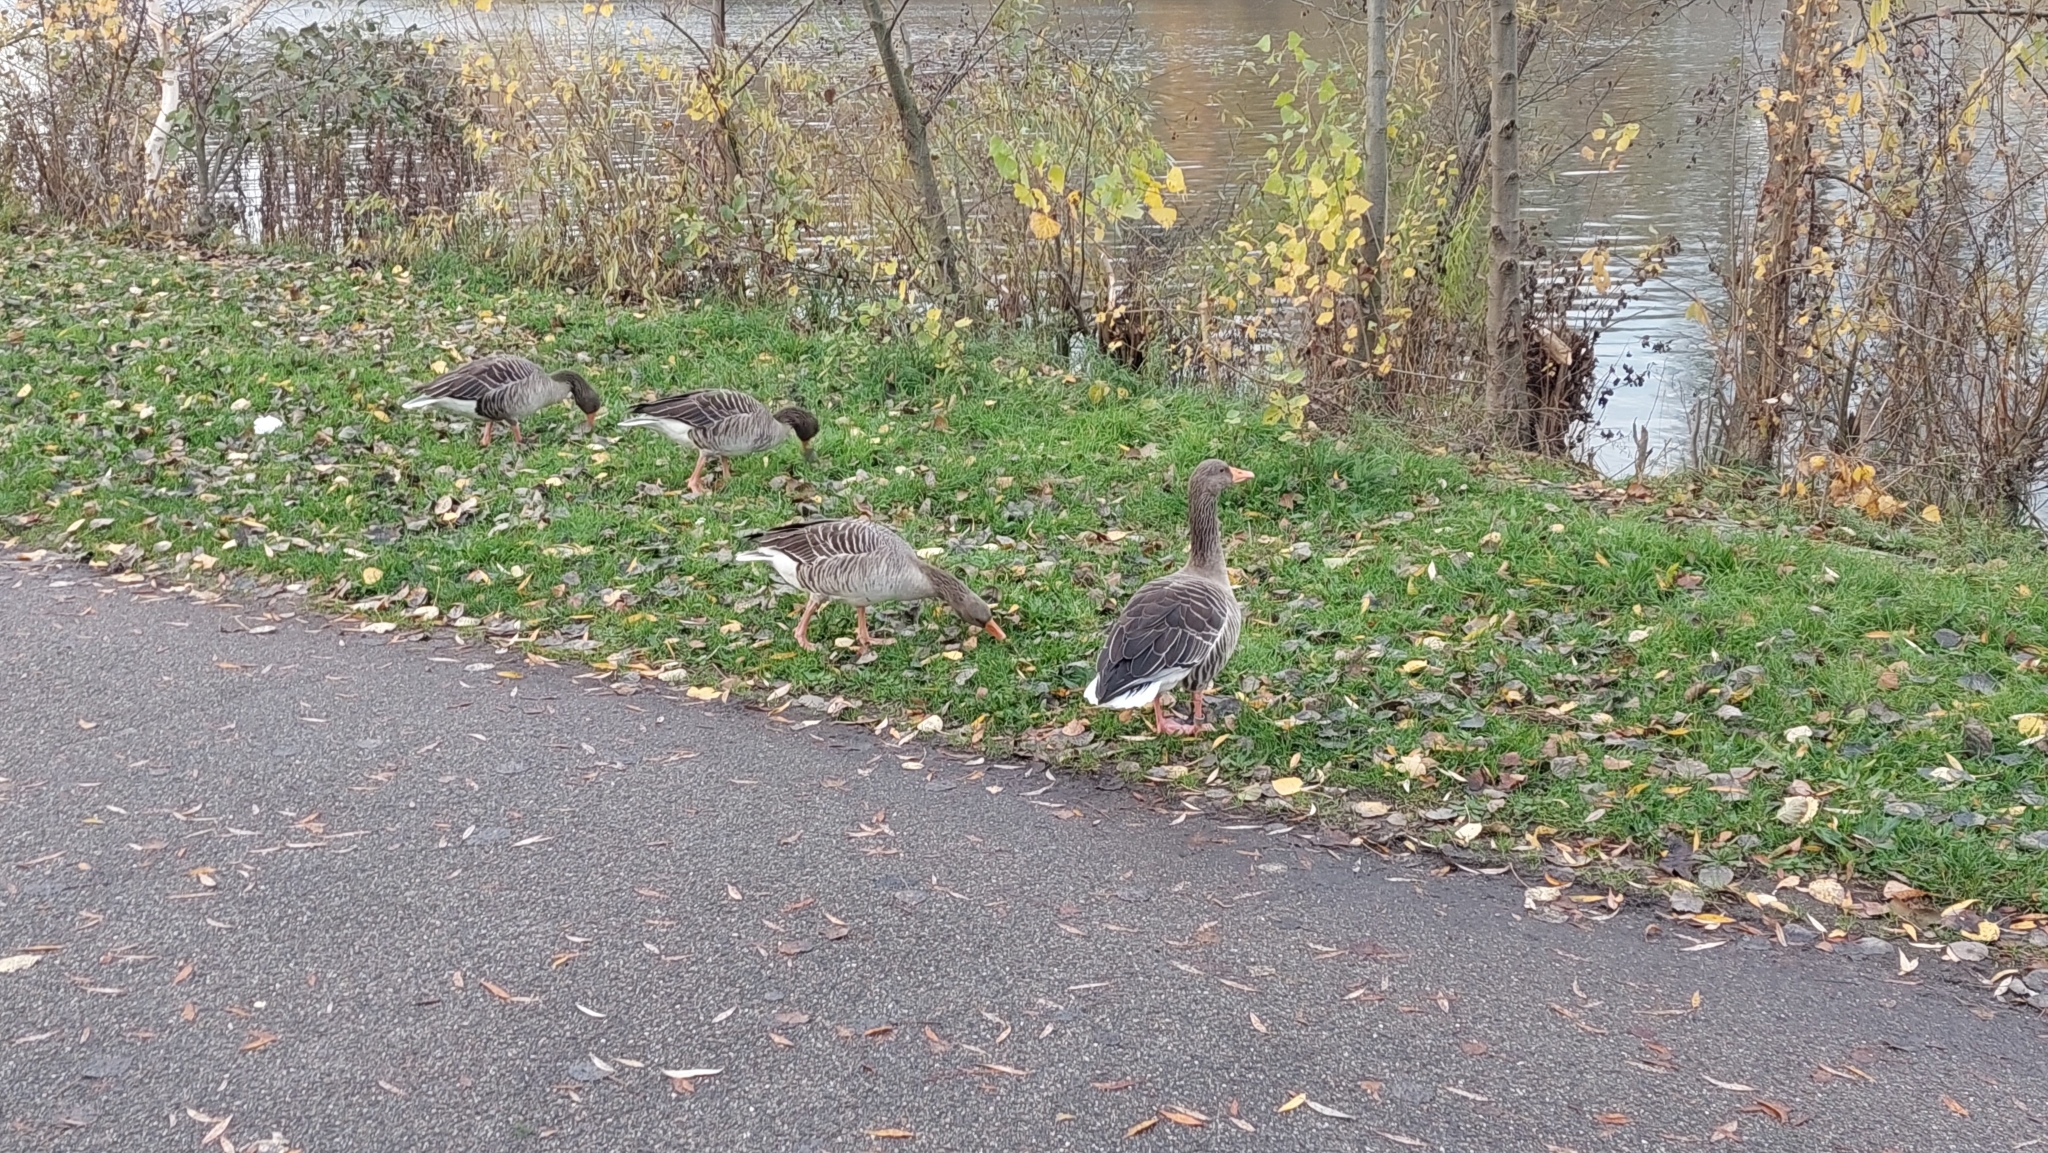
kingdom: Animalia
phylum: Chordata
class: Aves
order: Anseriformes
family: Anatidae
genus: Anser
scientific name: Anser anser
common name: Greylag goose
